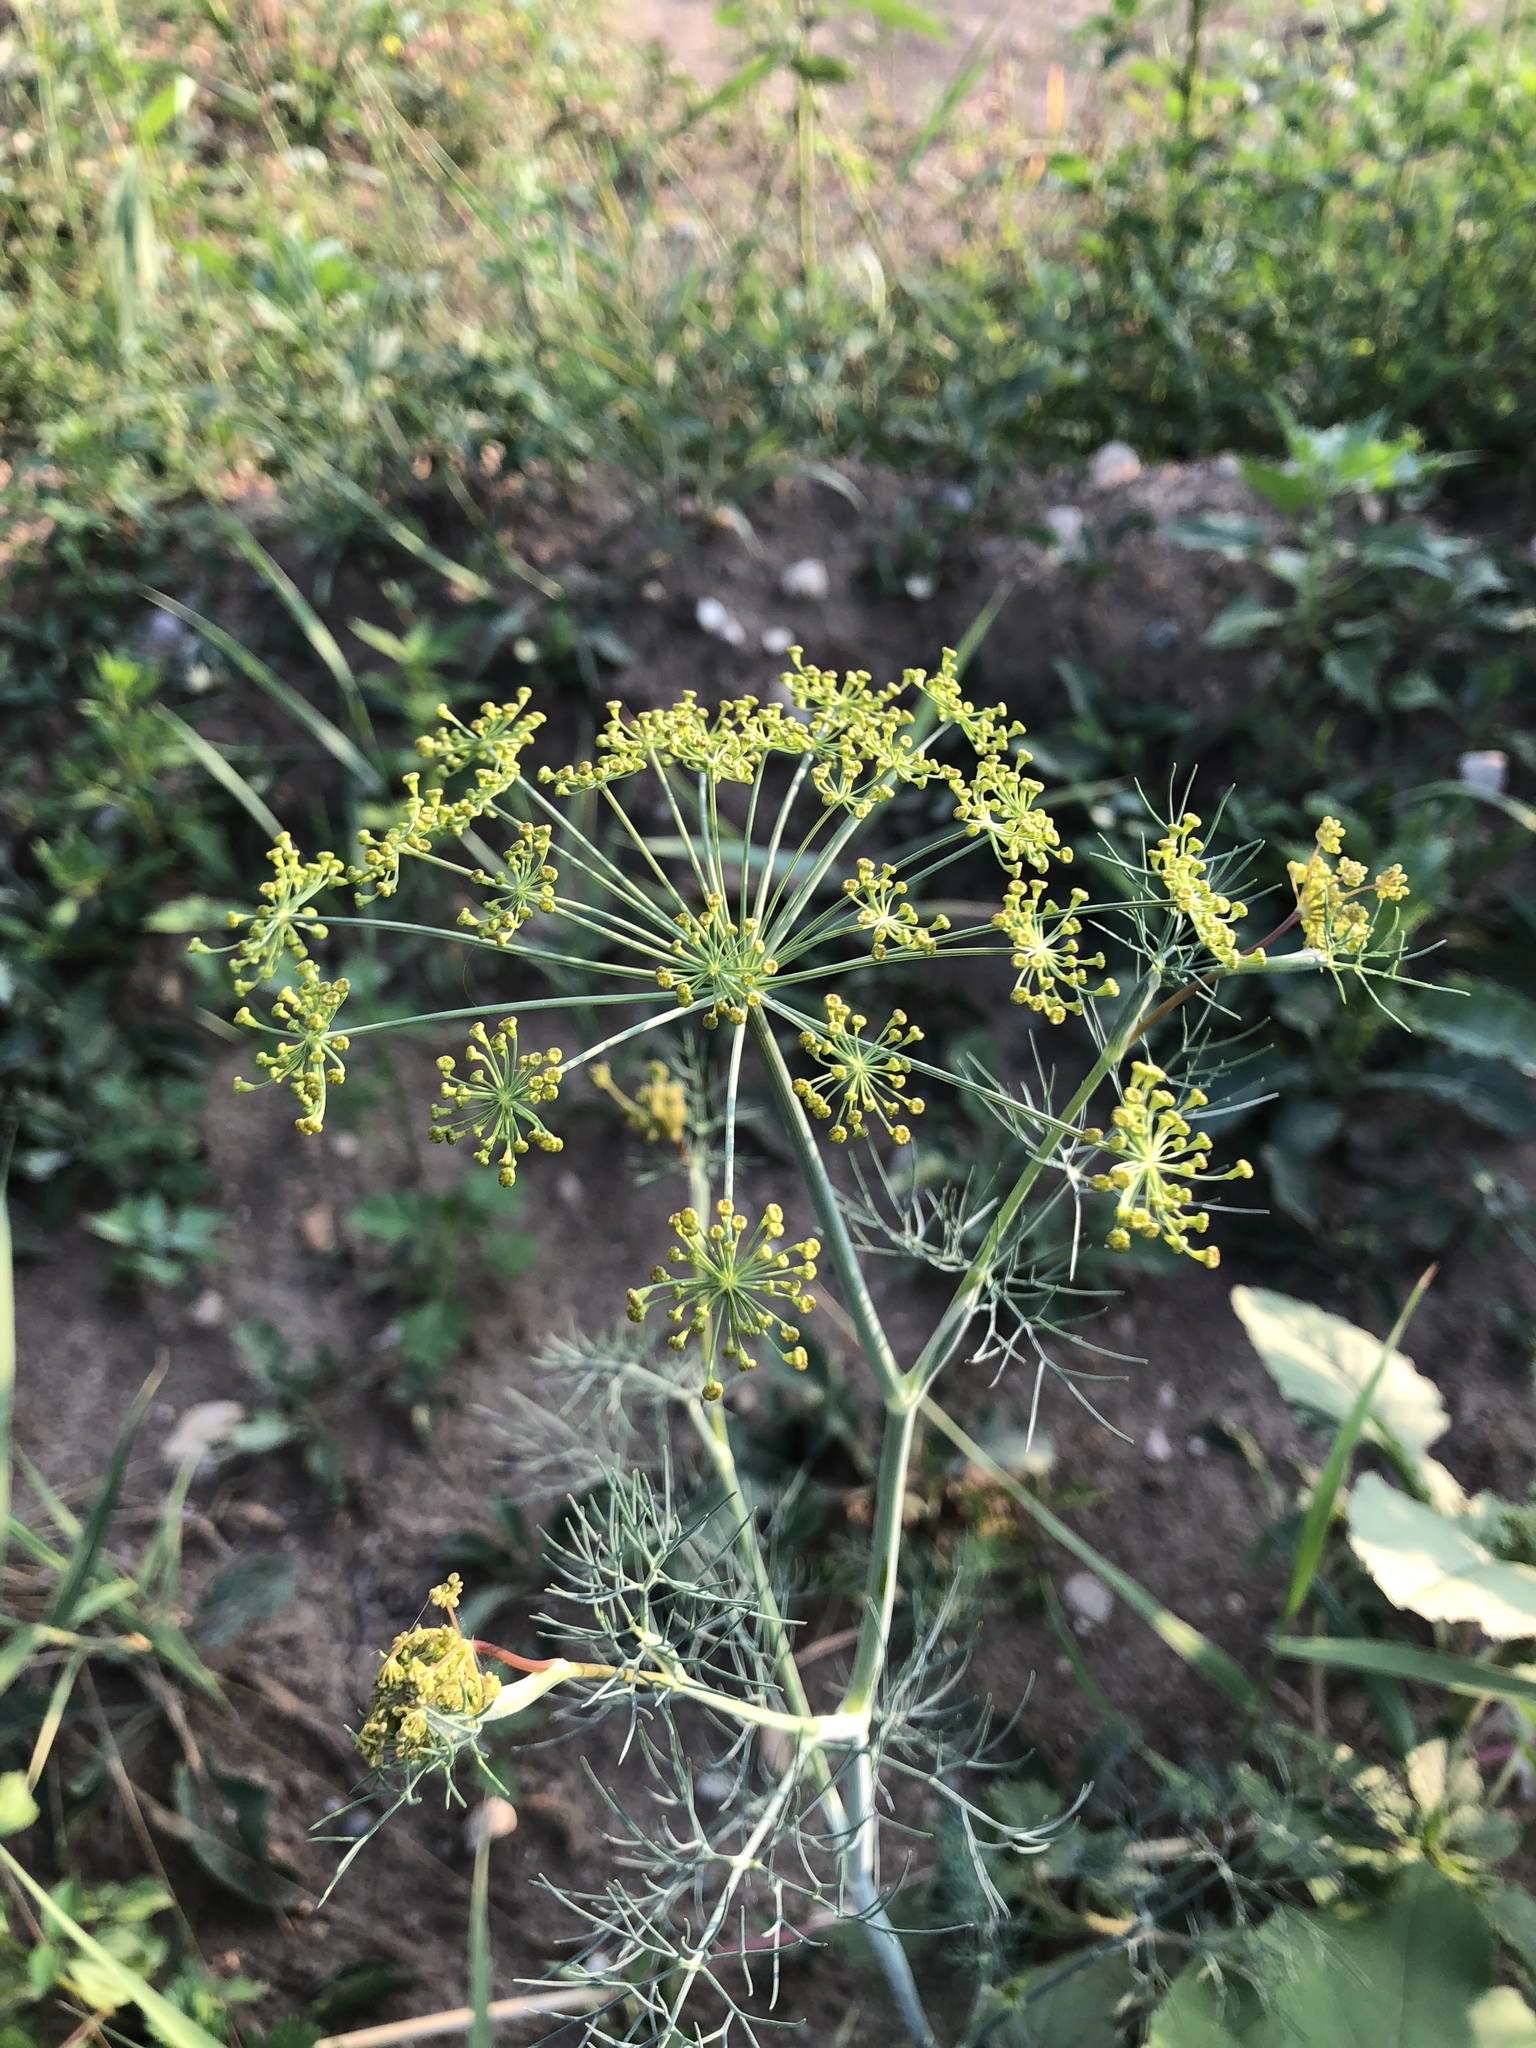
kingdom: Plantae
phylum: Tracheophyta
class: Magnoliopsida
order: Apiales
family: Apiaceae
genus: Anethum
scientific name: Anethum graveolens
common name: Dill
